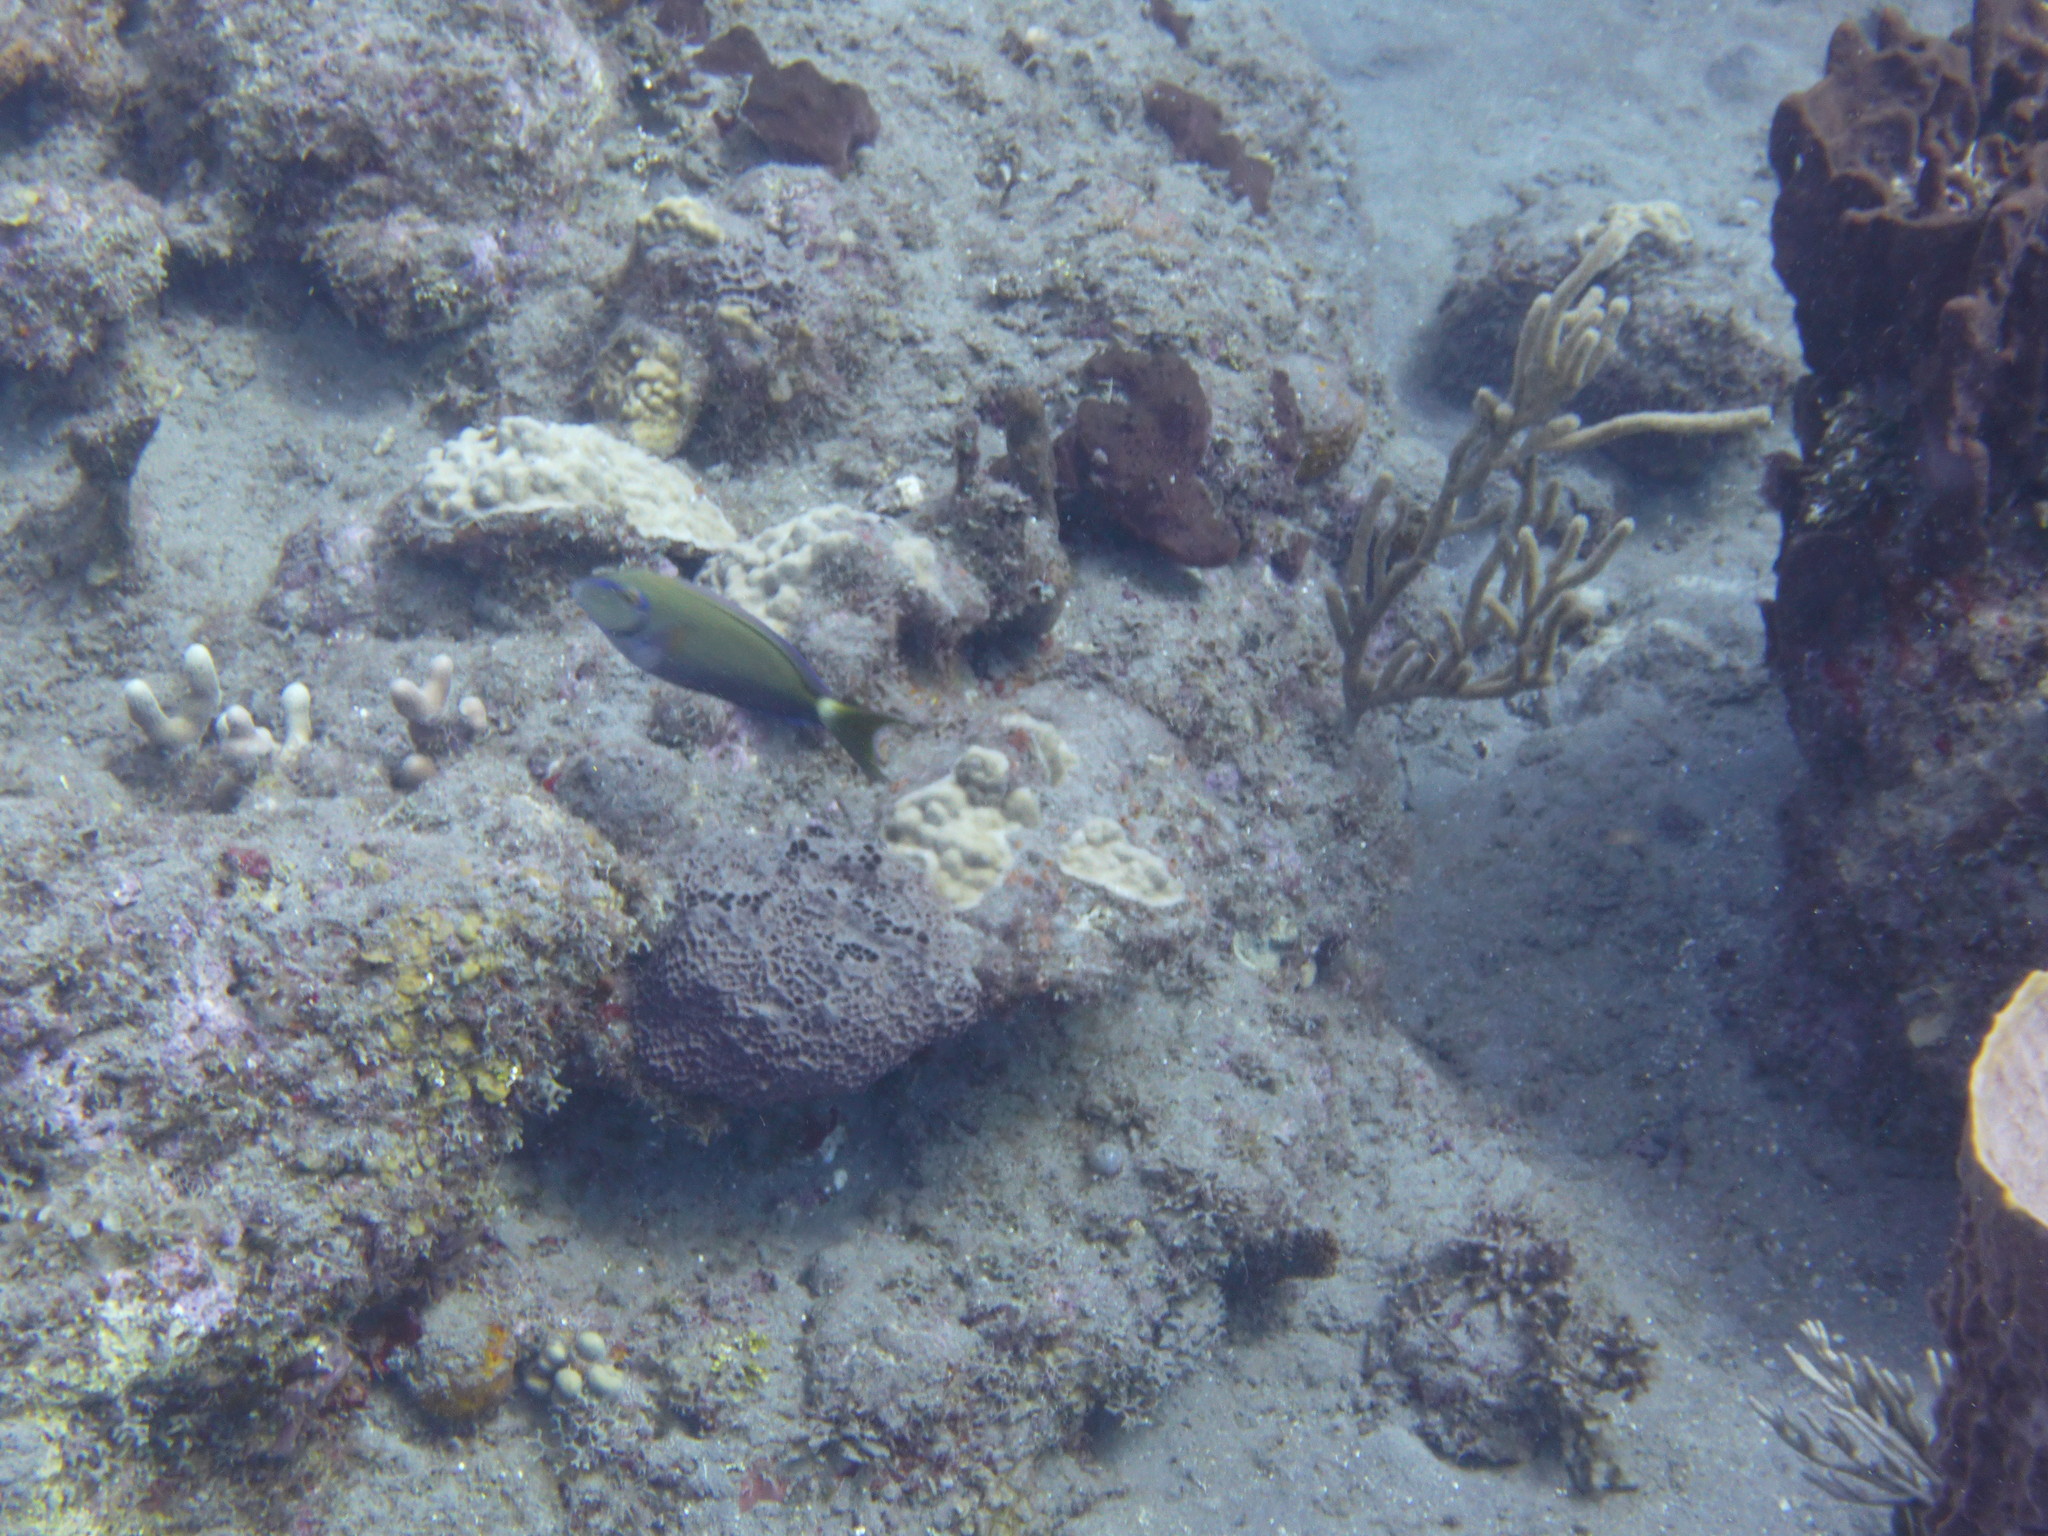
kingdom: Animalia
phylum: Chordata
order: Perciformes
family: Acanthuridae
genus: Acanthurus
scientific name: Acanthurus bahianus
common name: Ocean surgeon
